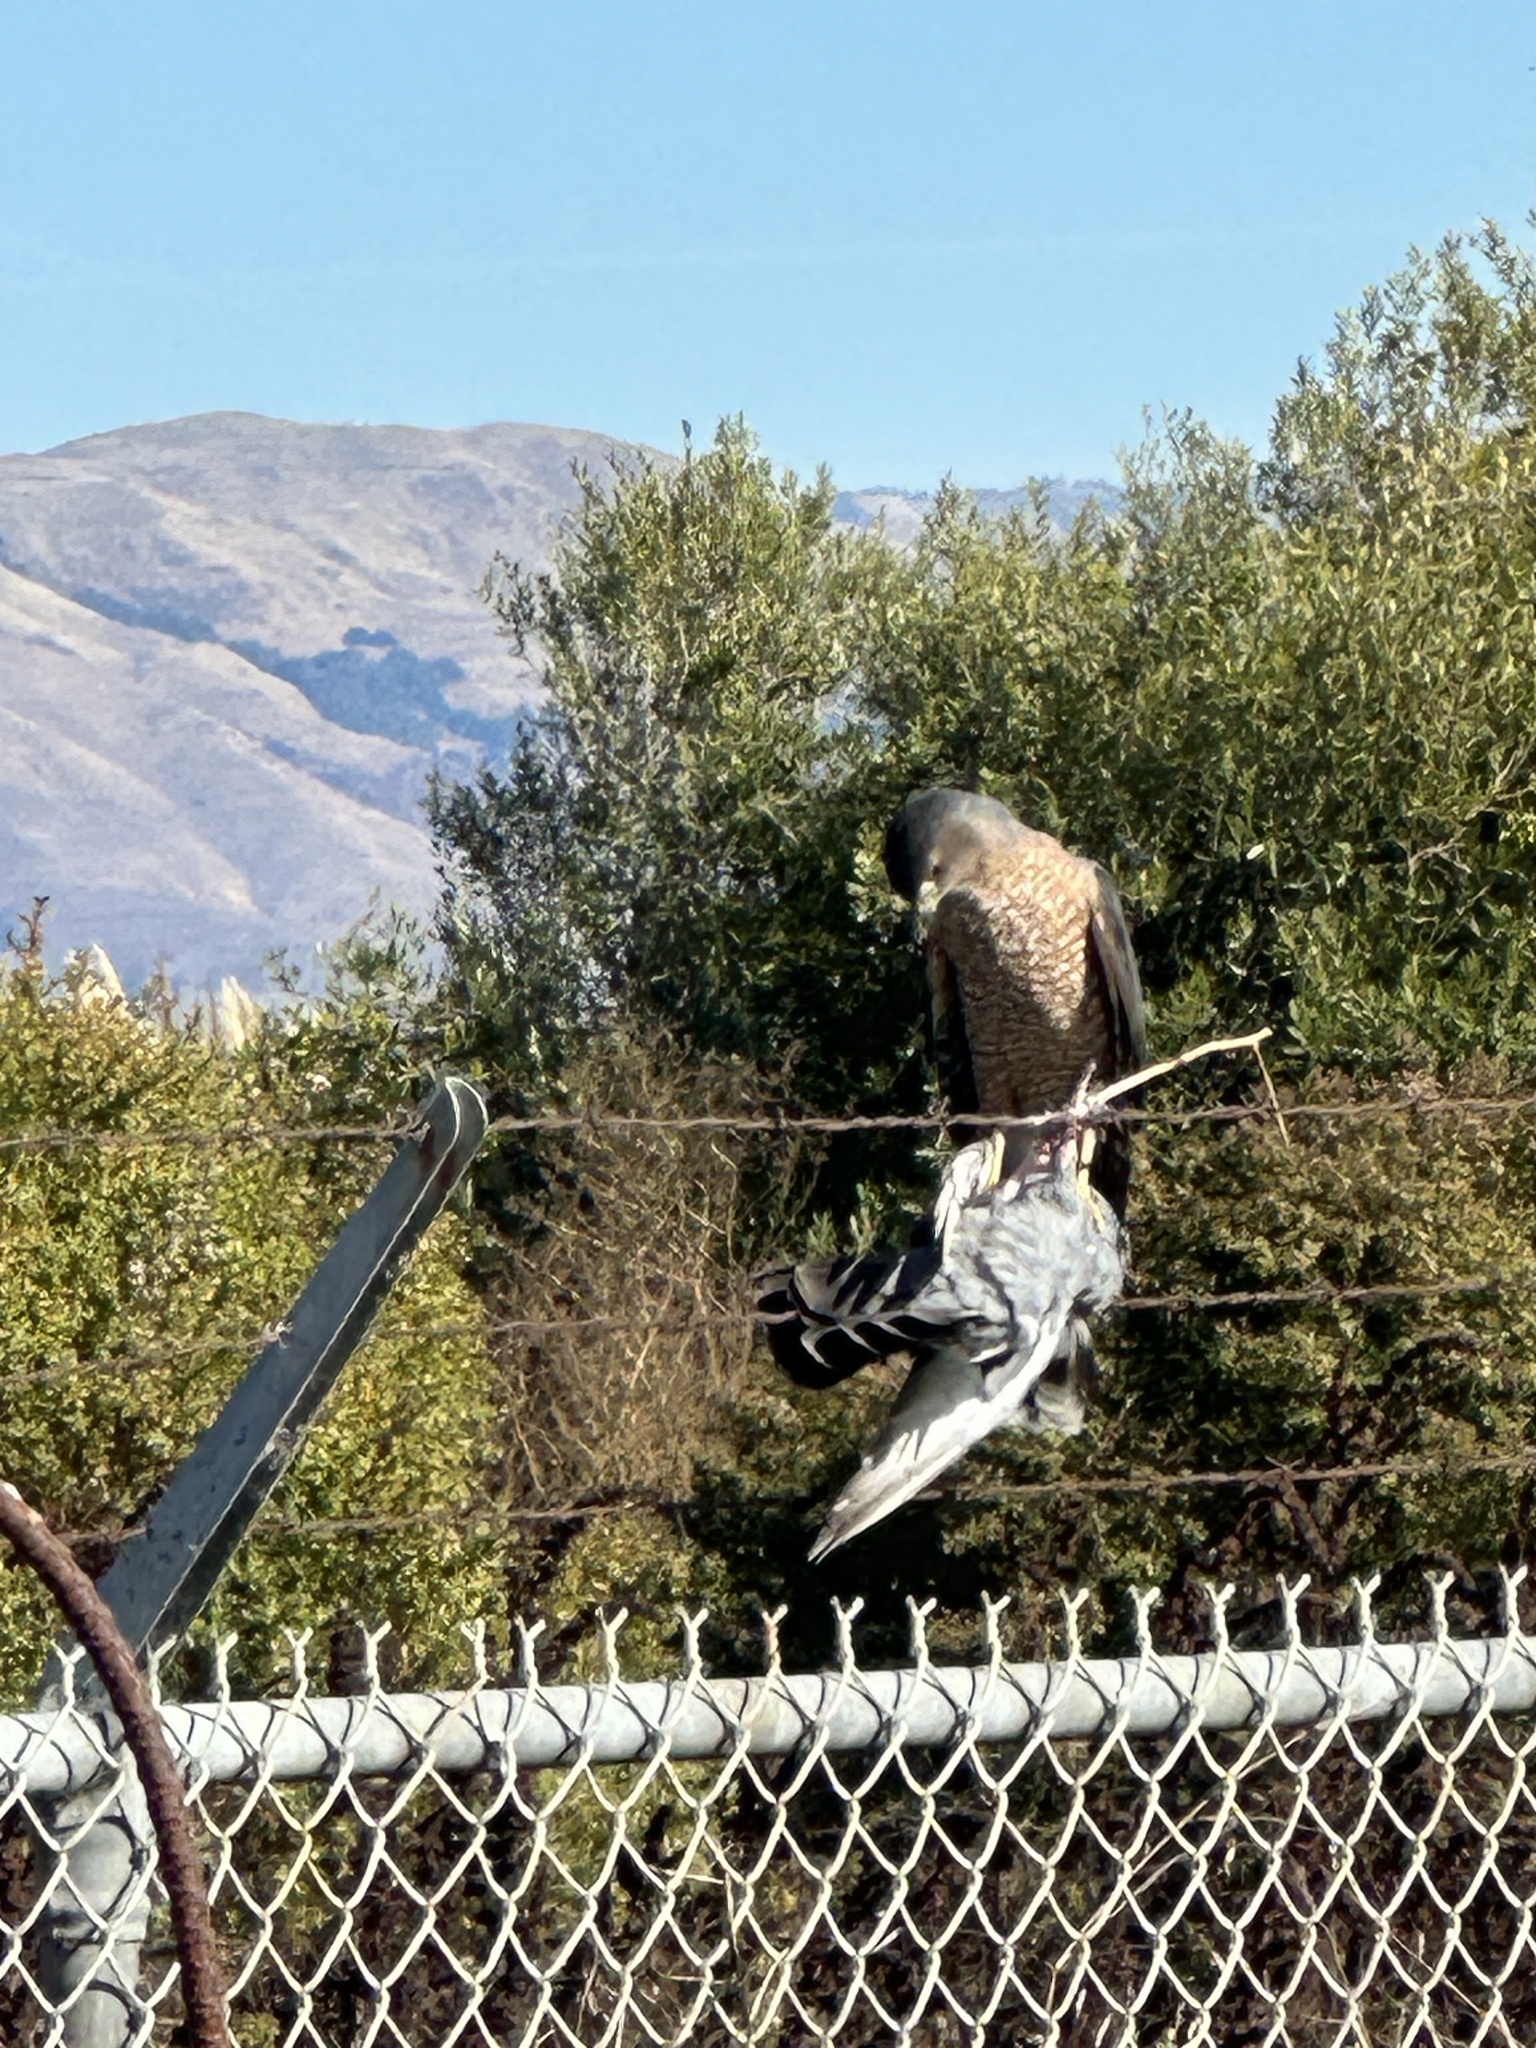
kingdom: Animalia
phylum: Chordata
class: Aves
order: Accipitriformes
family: Accipitridae
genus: Accipiter
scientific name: Accipiter cooperii
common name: Cooper's hawk
